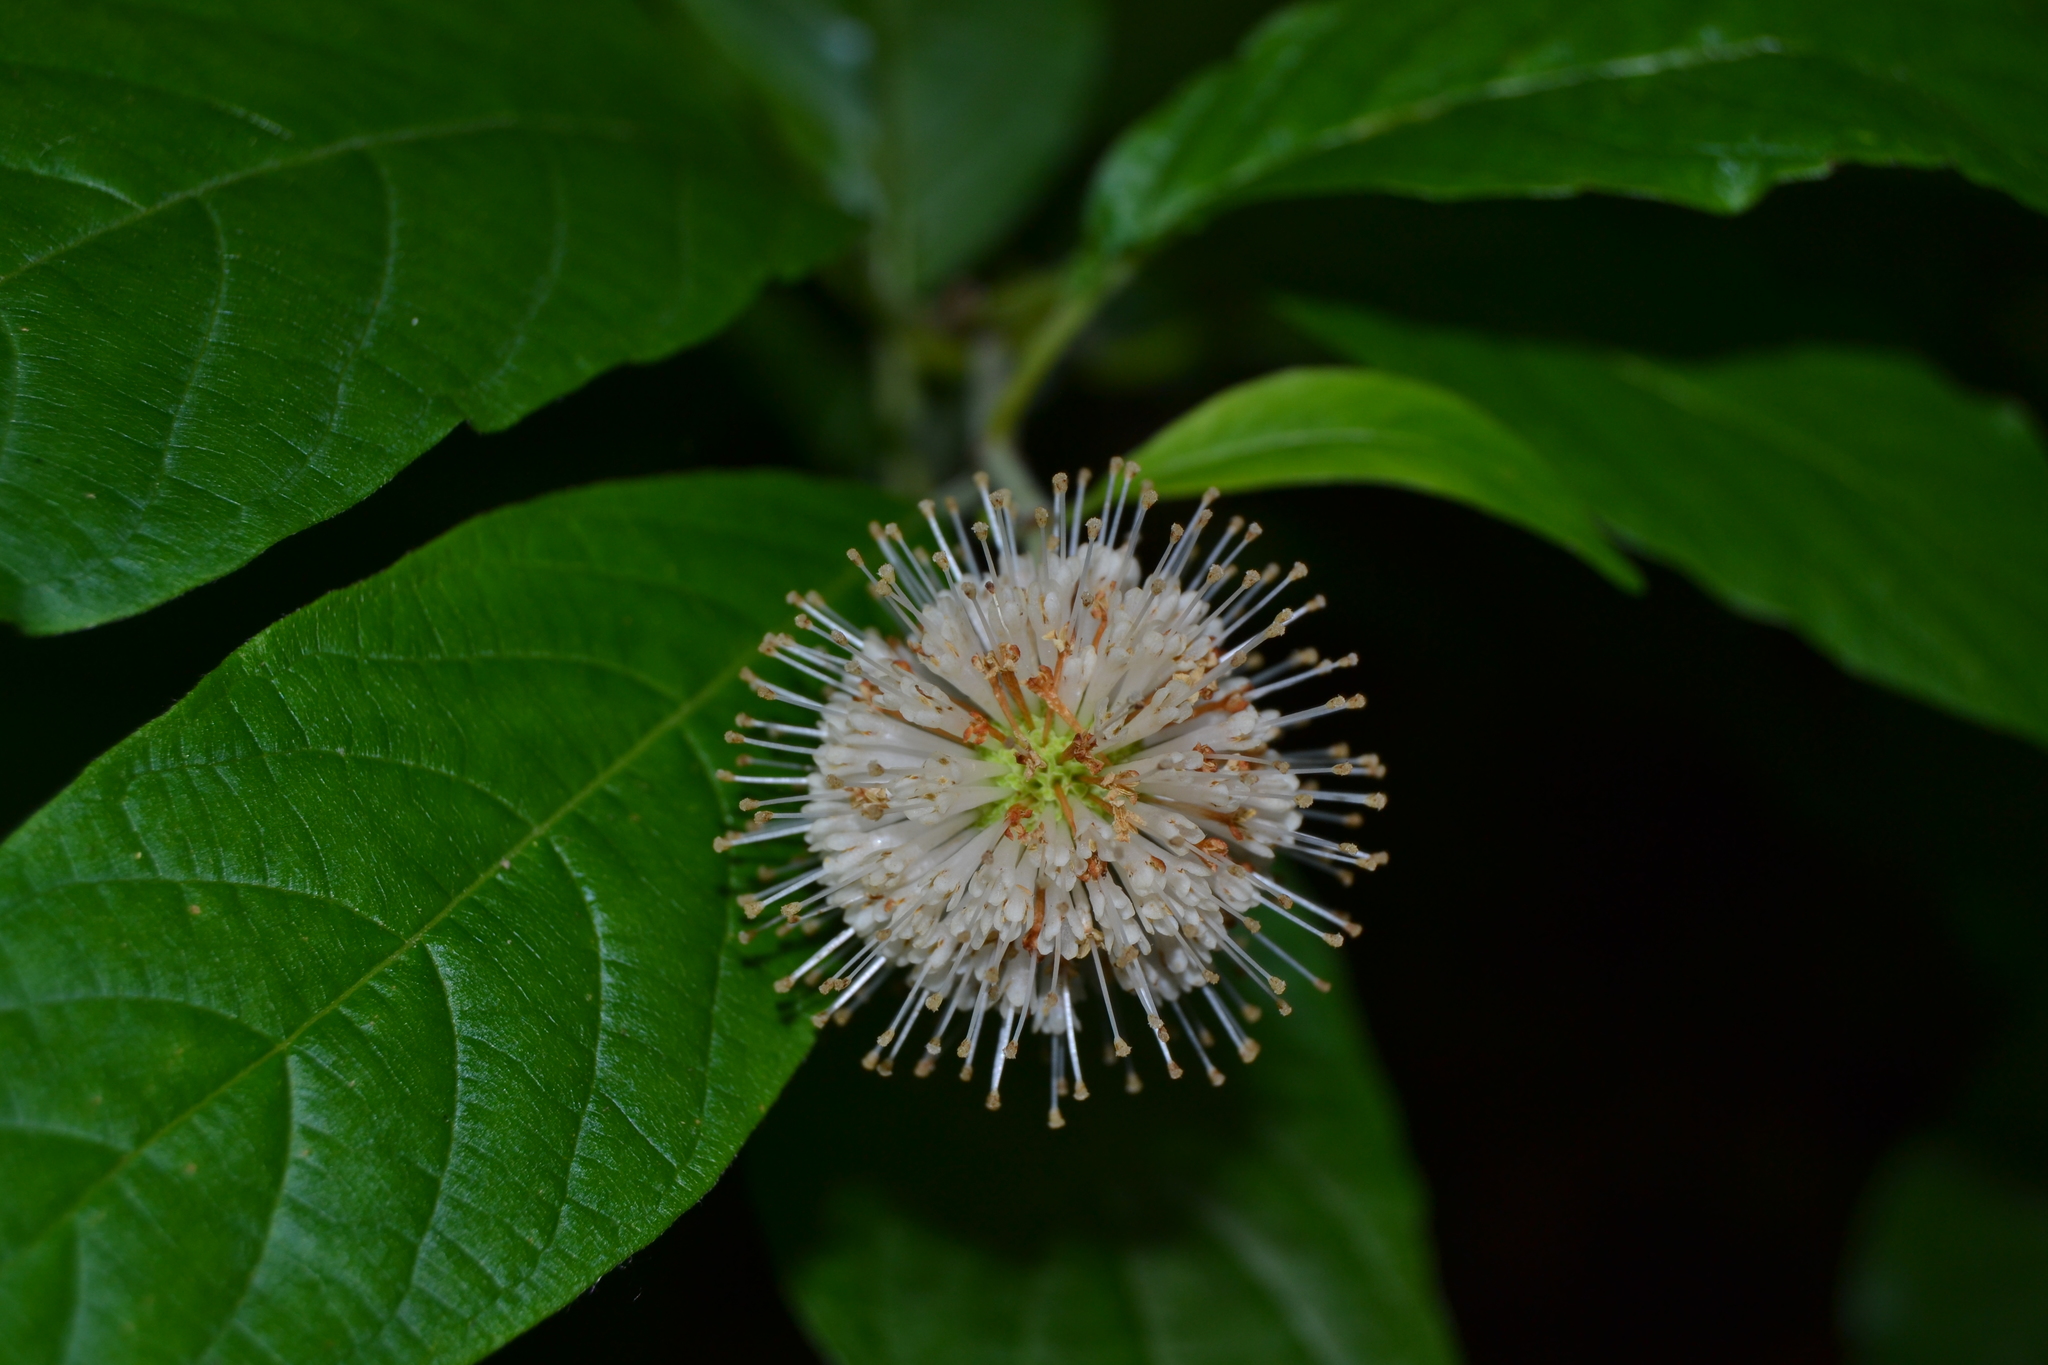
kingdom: Plantae
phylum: Tracheophyta
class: Magnoliopsida
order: Gentianales
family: Rubiaceae
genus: Cephalanthus
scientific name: Cephalanthus occidentalis
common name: Button-willow
